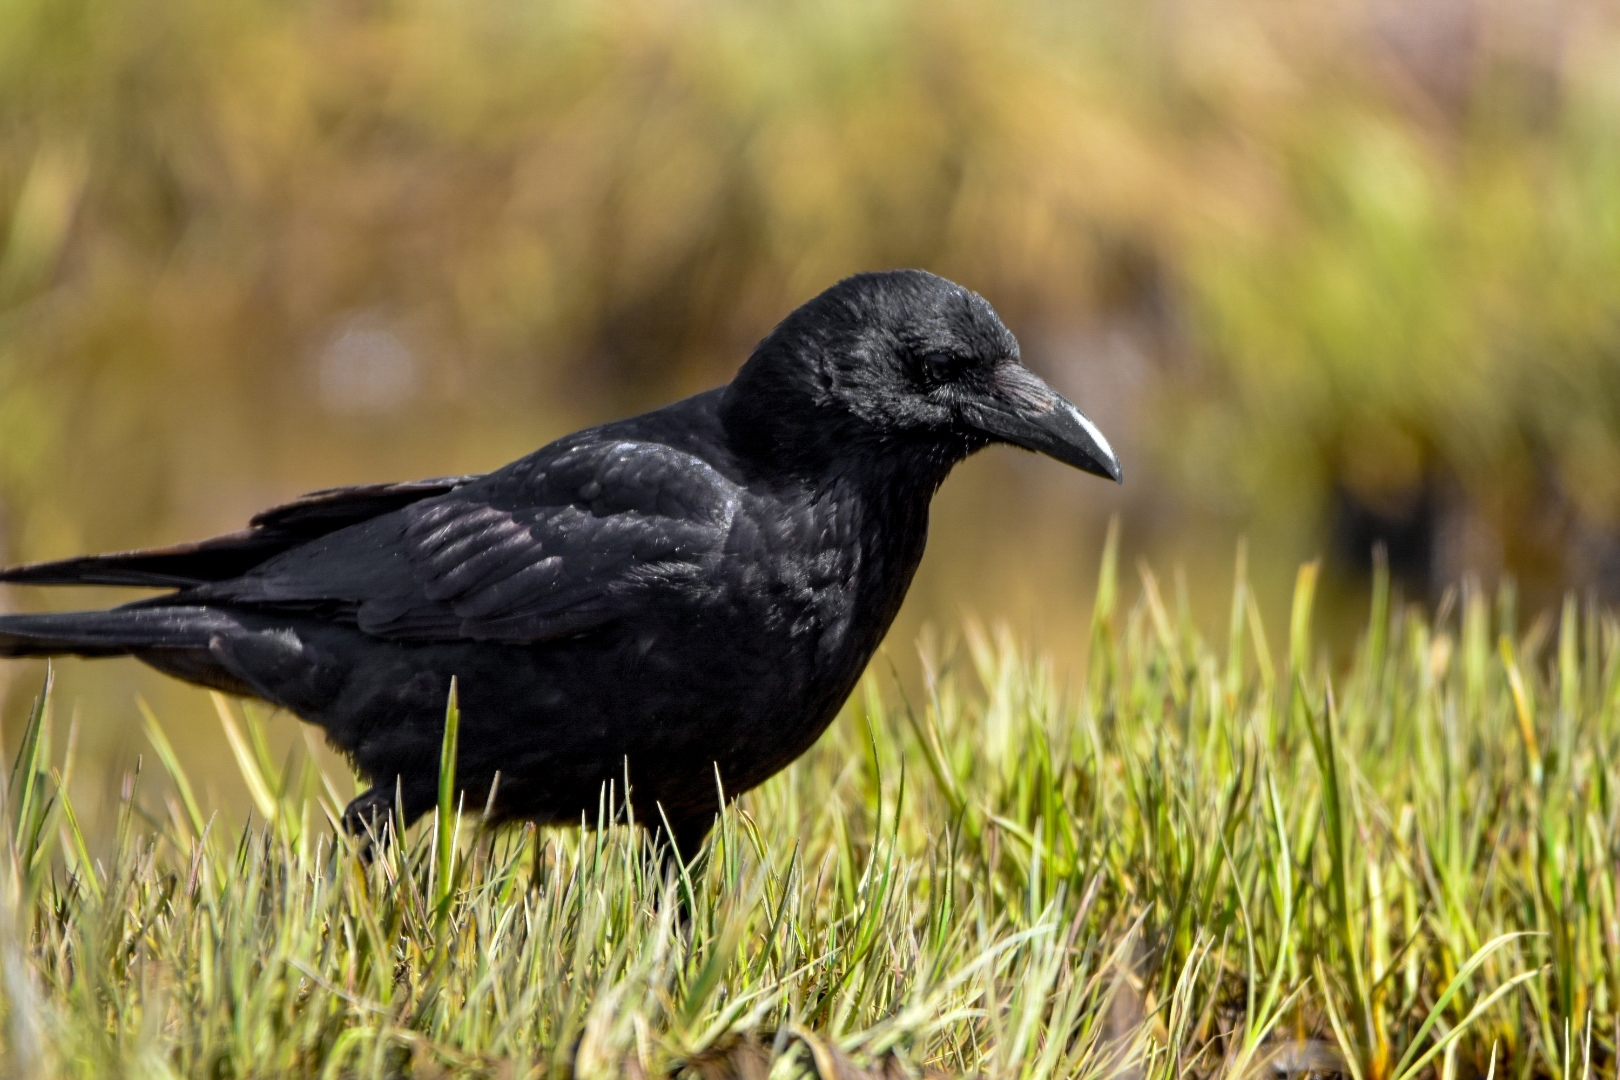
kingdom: Animalia
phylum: Chordata
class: Aves
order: Passeriformes
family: Corvidae
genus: Corvus
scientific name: Corvus corone
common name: Carrion crow
